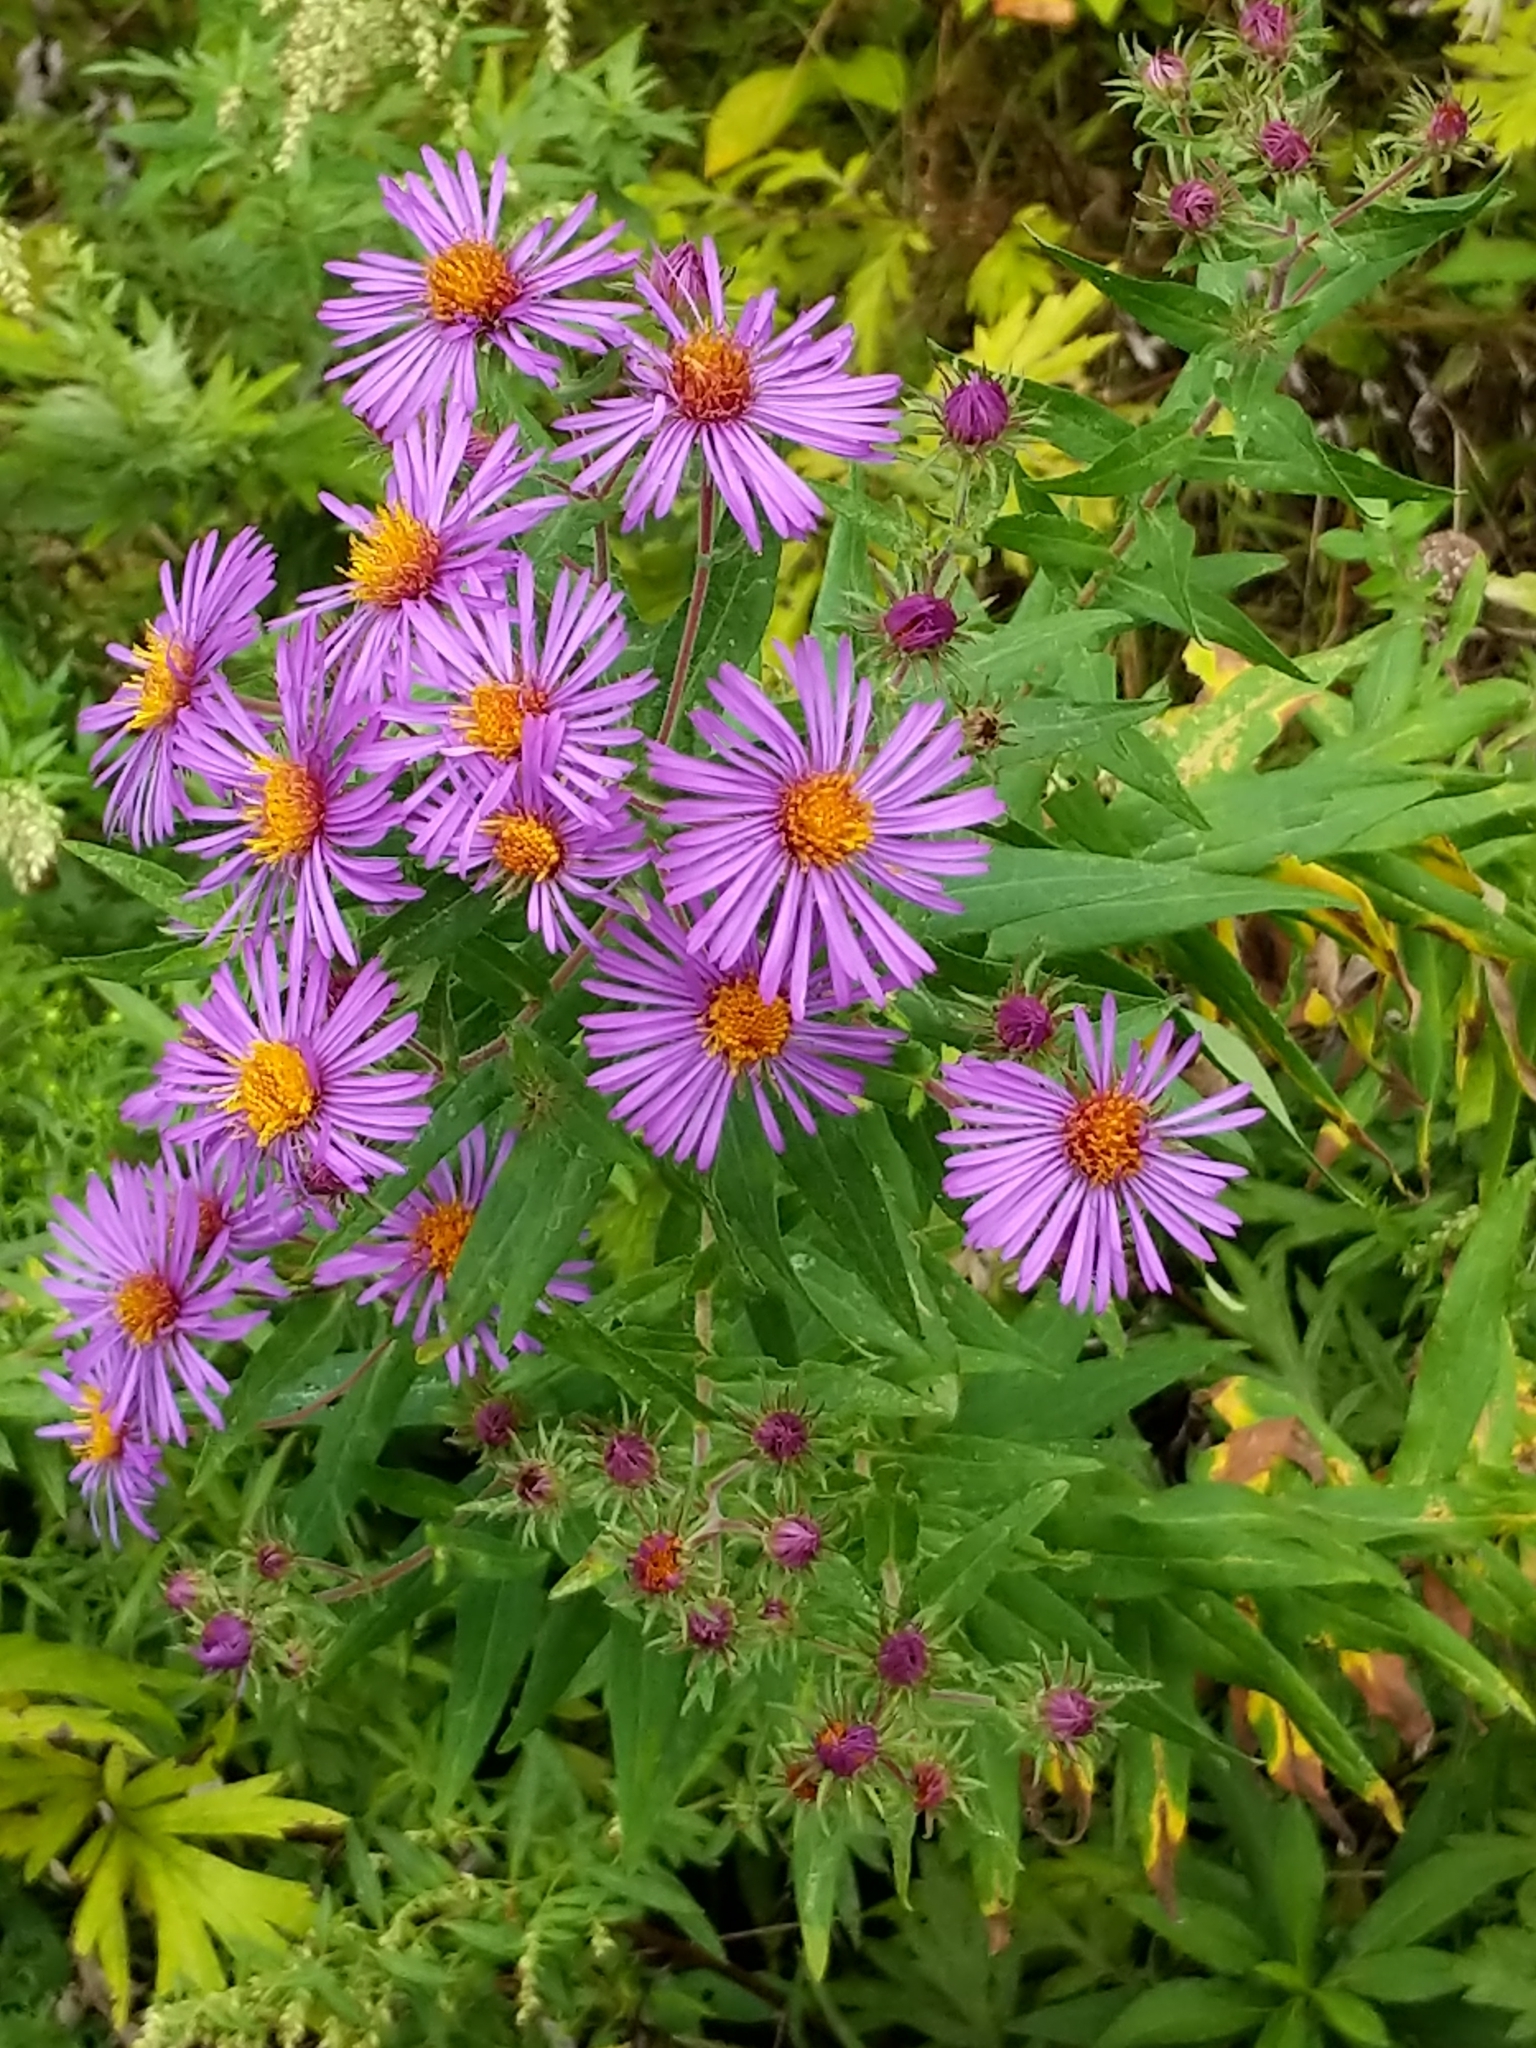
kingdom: Plantae
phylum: Tracheophyta
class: Magnoliopsida
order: Asterales
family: Asteraceae
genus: Symphyotrichum
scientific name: Symphyotrichum novae-angliae
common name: Michaelmas daisy
